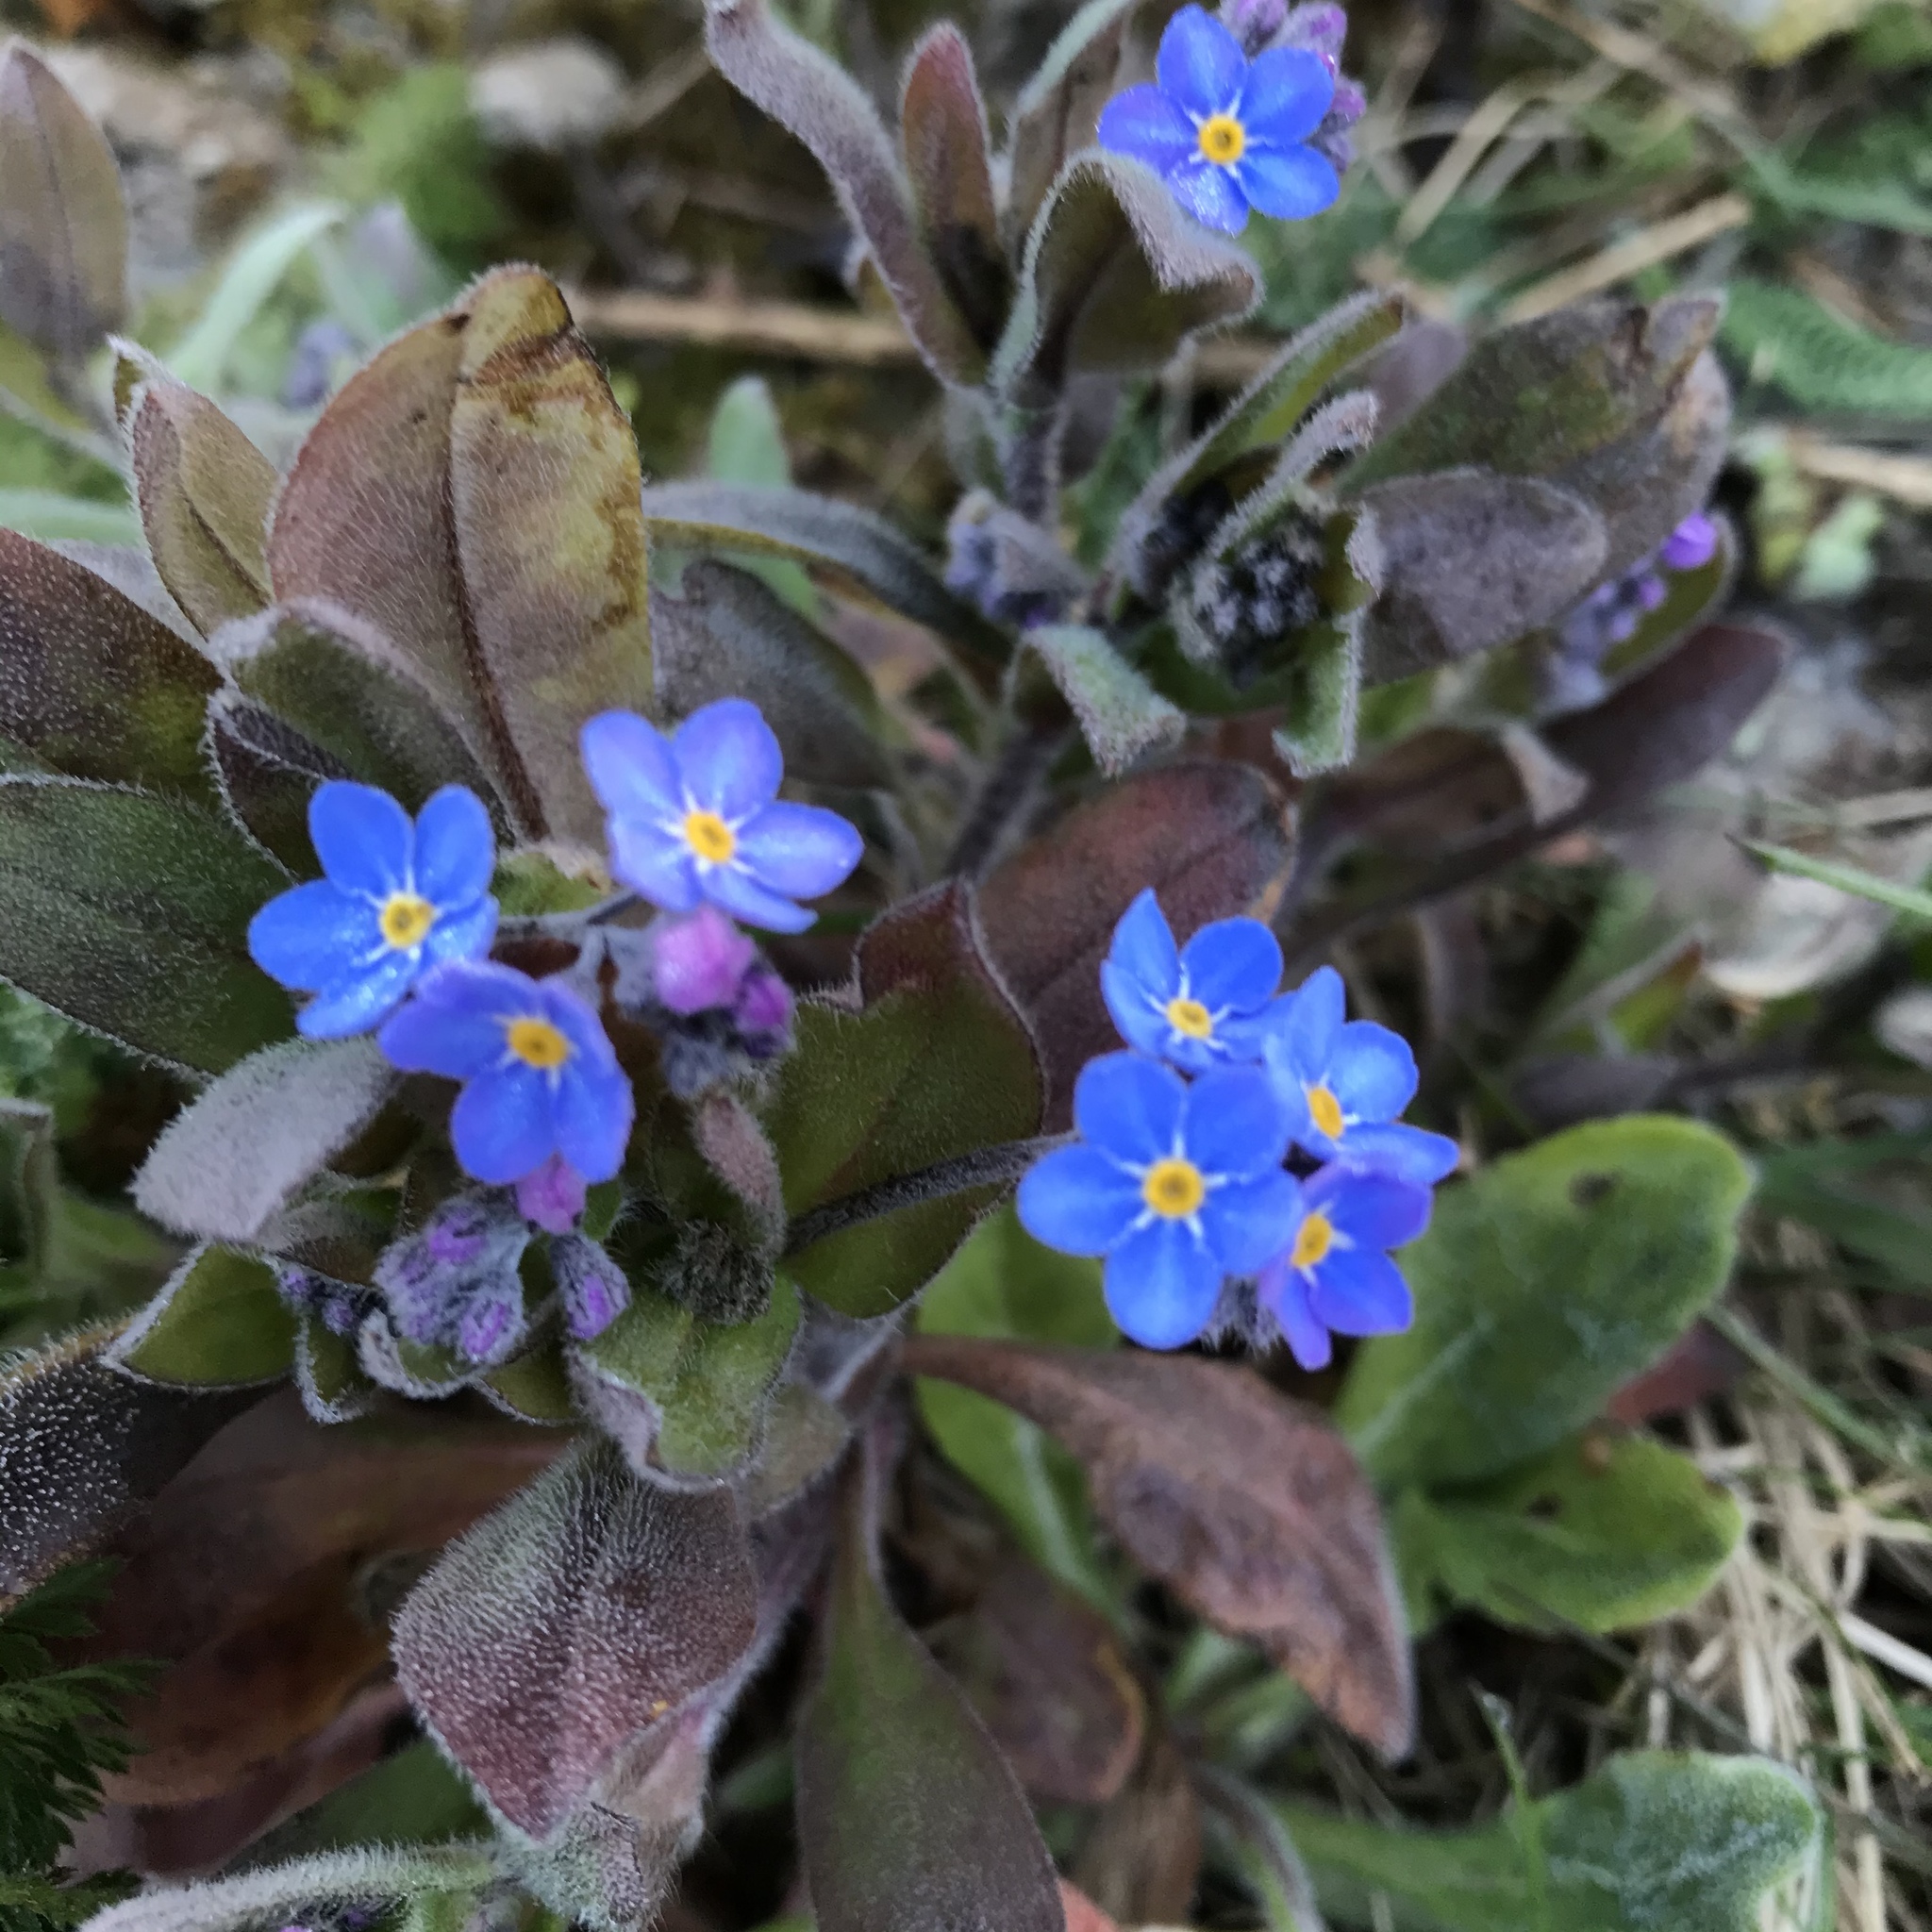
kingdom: Plantae
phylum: Tracheophyta
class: Magnoliopsida
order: Boraginales
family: Boraginaceae
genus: Myosotis
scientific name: Myosotis sylvatica
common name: Wood forget-me-not
